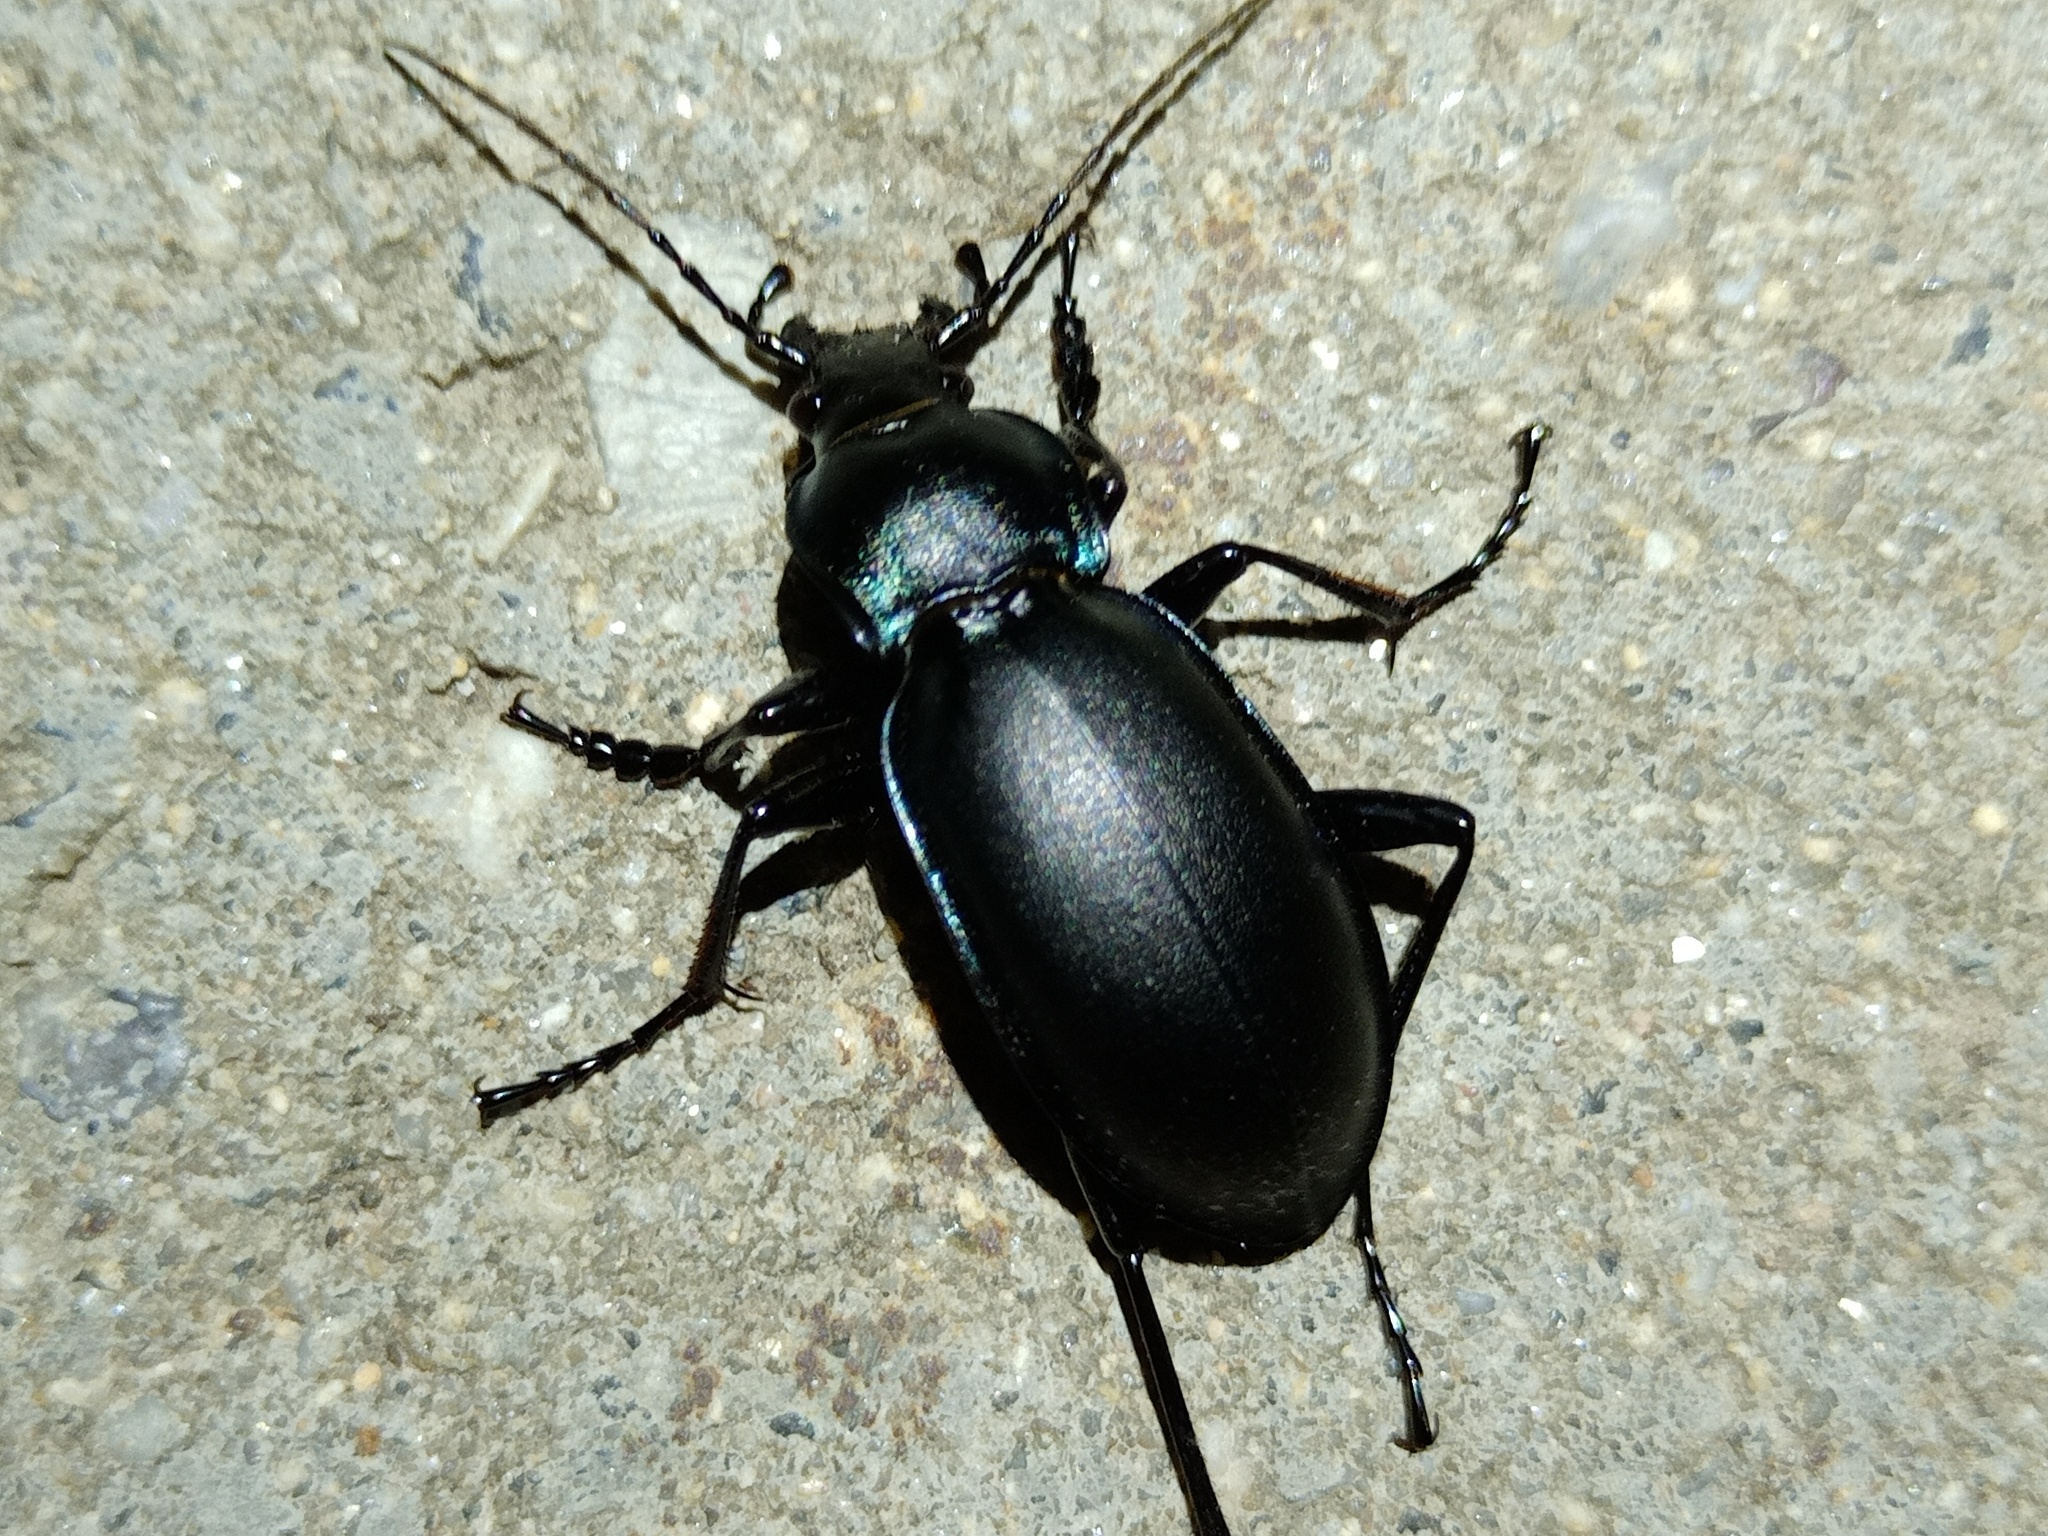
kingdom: Animalia
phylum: Arthropoda
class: Insecta
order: Coleoptera
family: Carabidae
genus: Carabus
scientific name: Carabus violaceus
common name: Violet ground beetle
